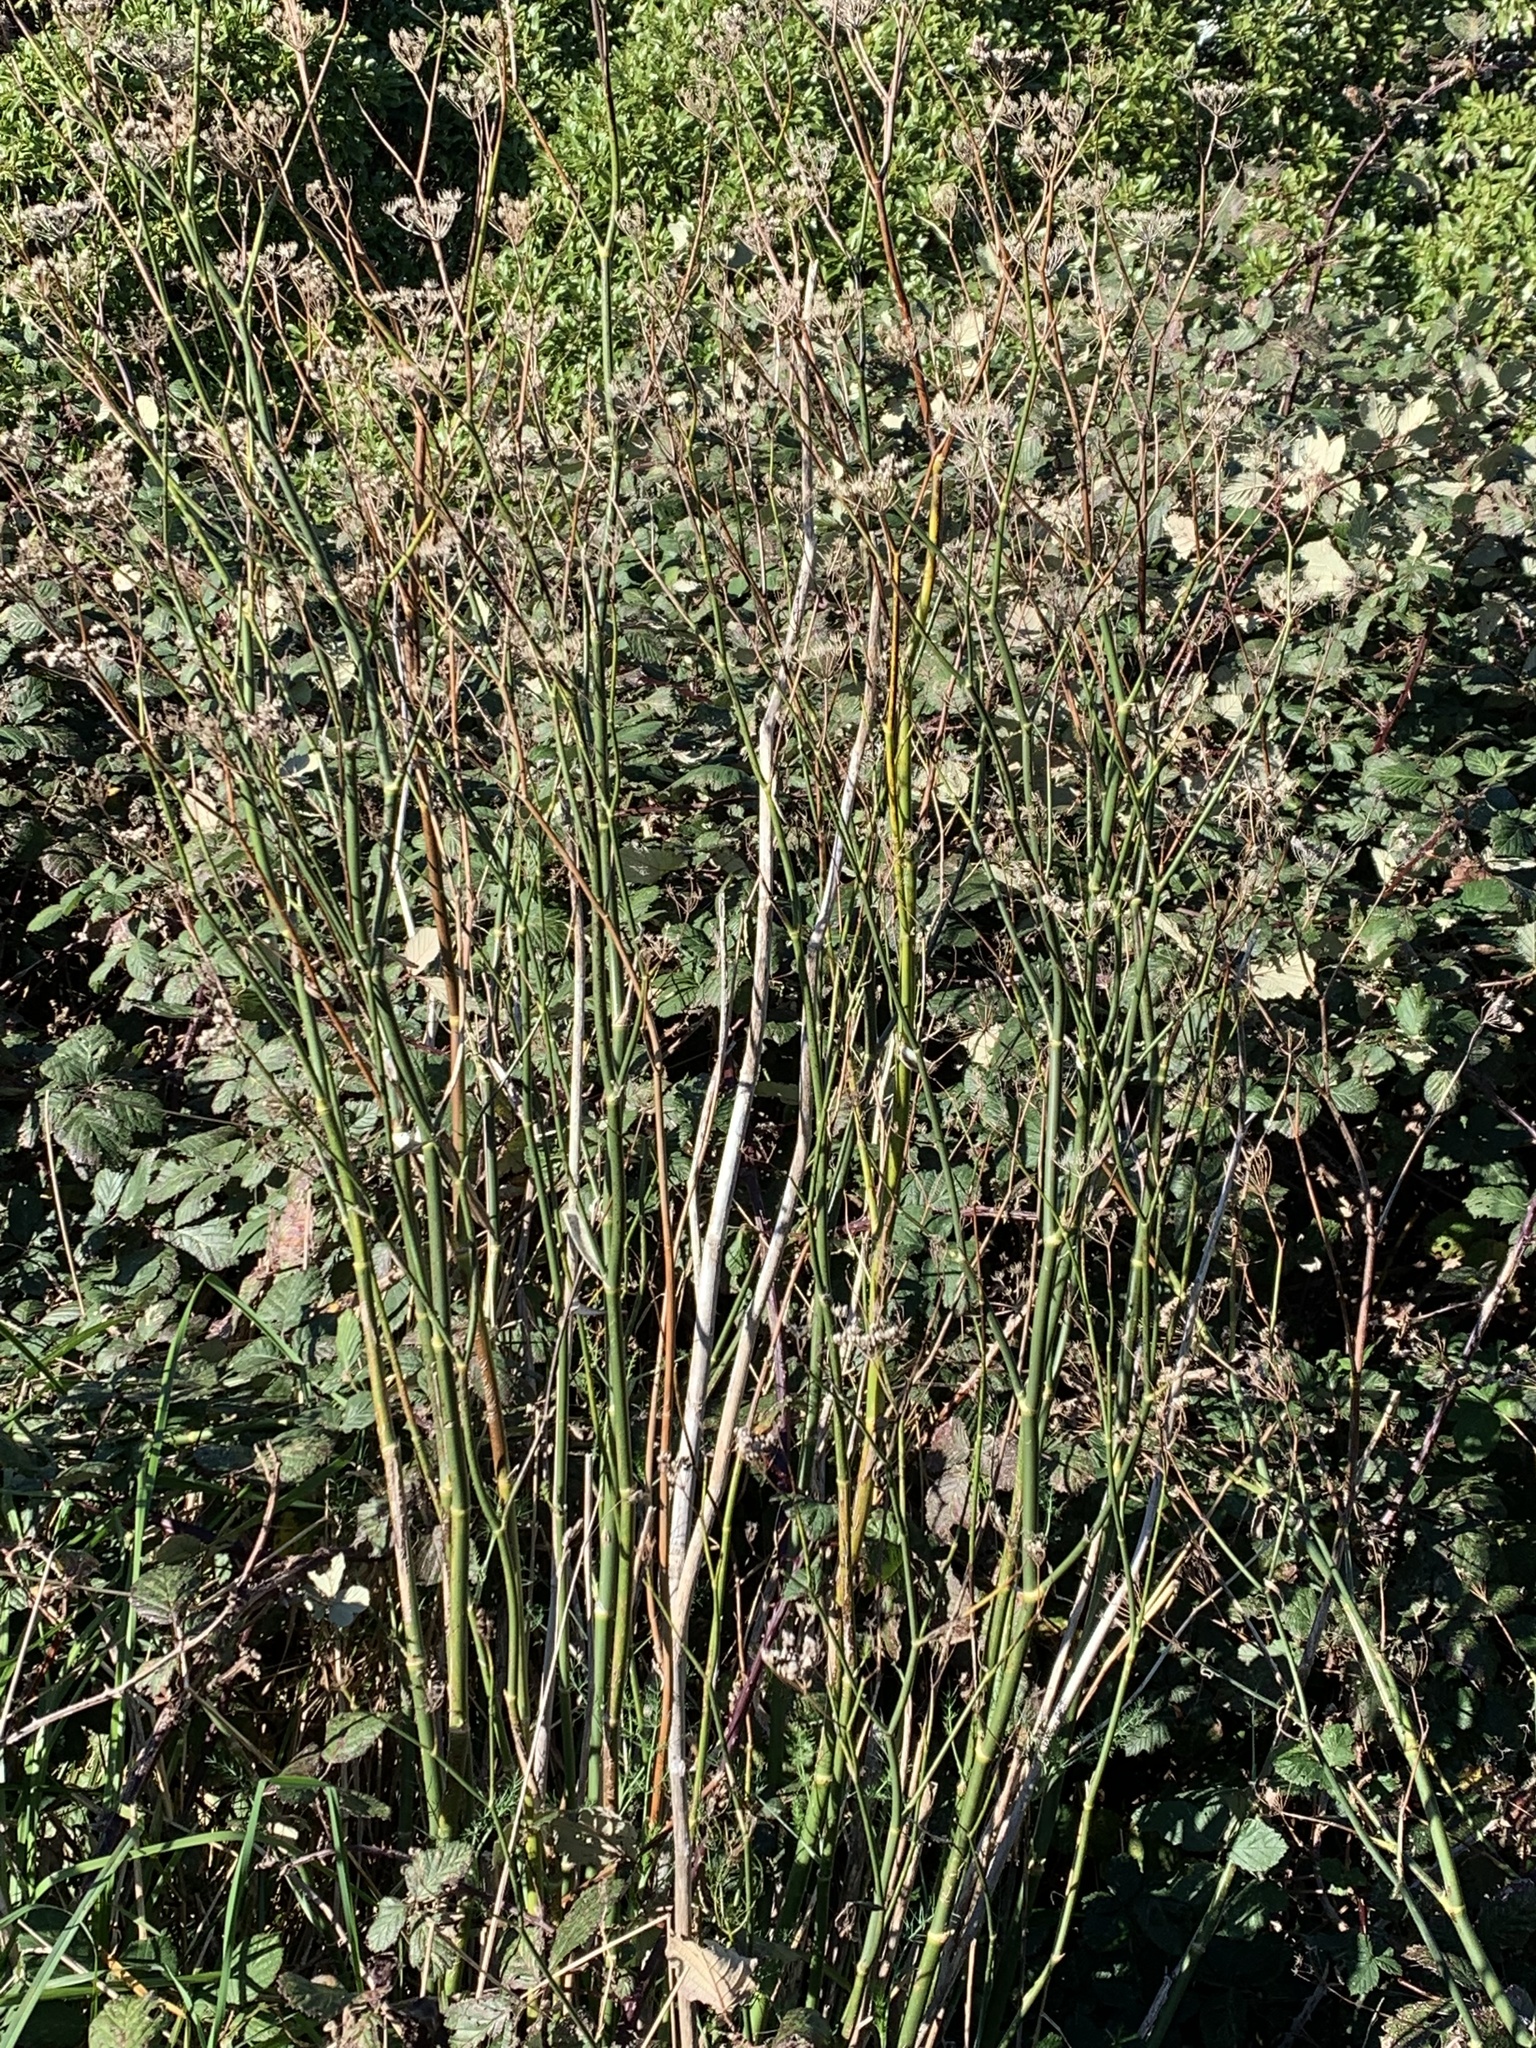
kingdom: Plantae
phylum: Tracheophyta
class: Magnoliopsida
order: Apiales
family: Apiaceae
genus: Foeniculum
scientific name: Foeniculum vulgare
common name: Fennel
